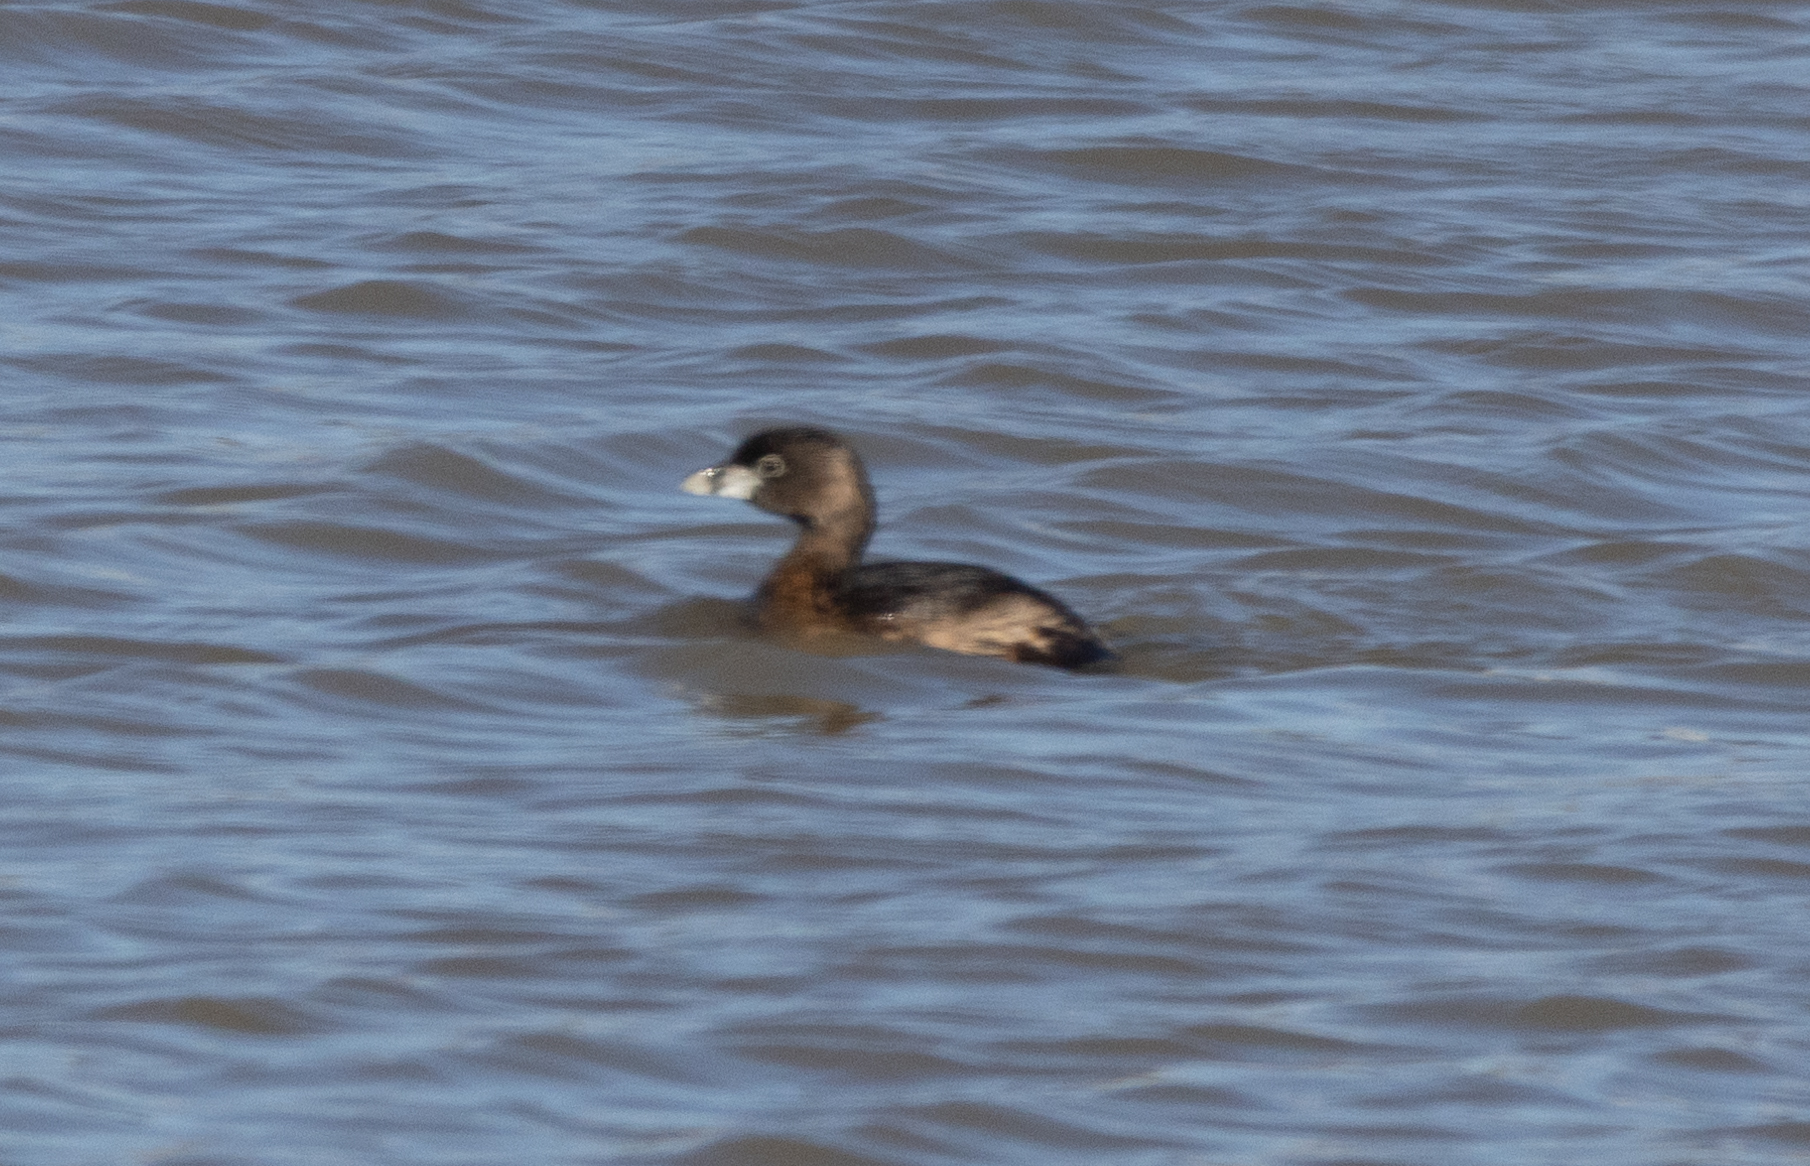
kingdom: Animalia
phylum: Chordata
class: Aves
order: Podicipediformes
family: Podicipedidae
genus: Podilymbus
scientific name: Podilymbus podiceps
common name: Pied-billed grebe
